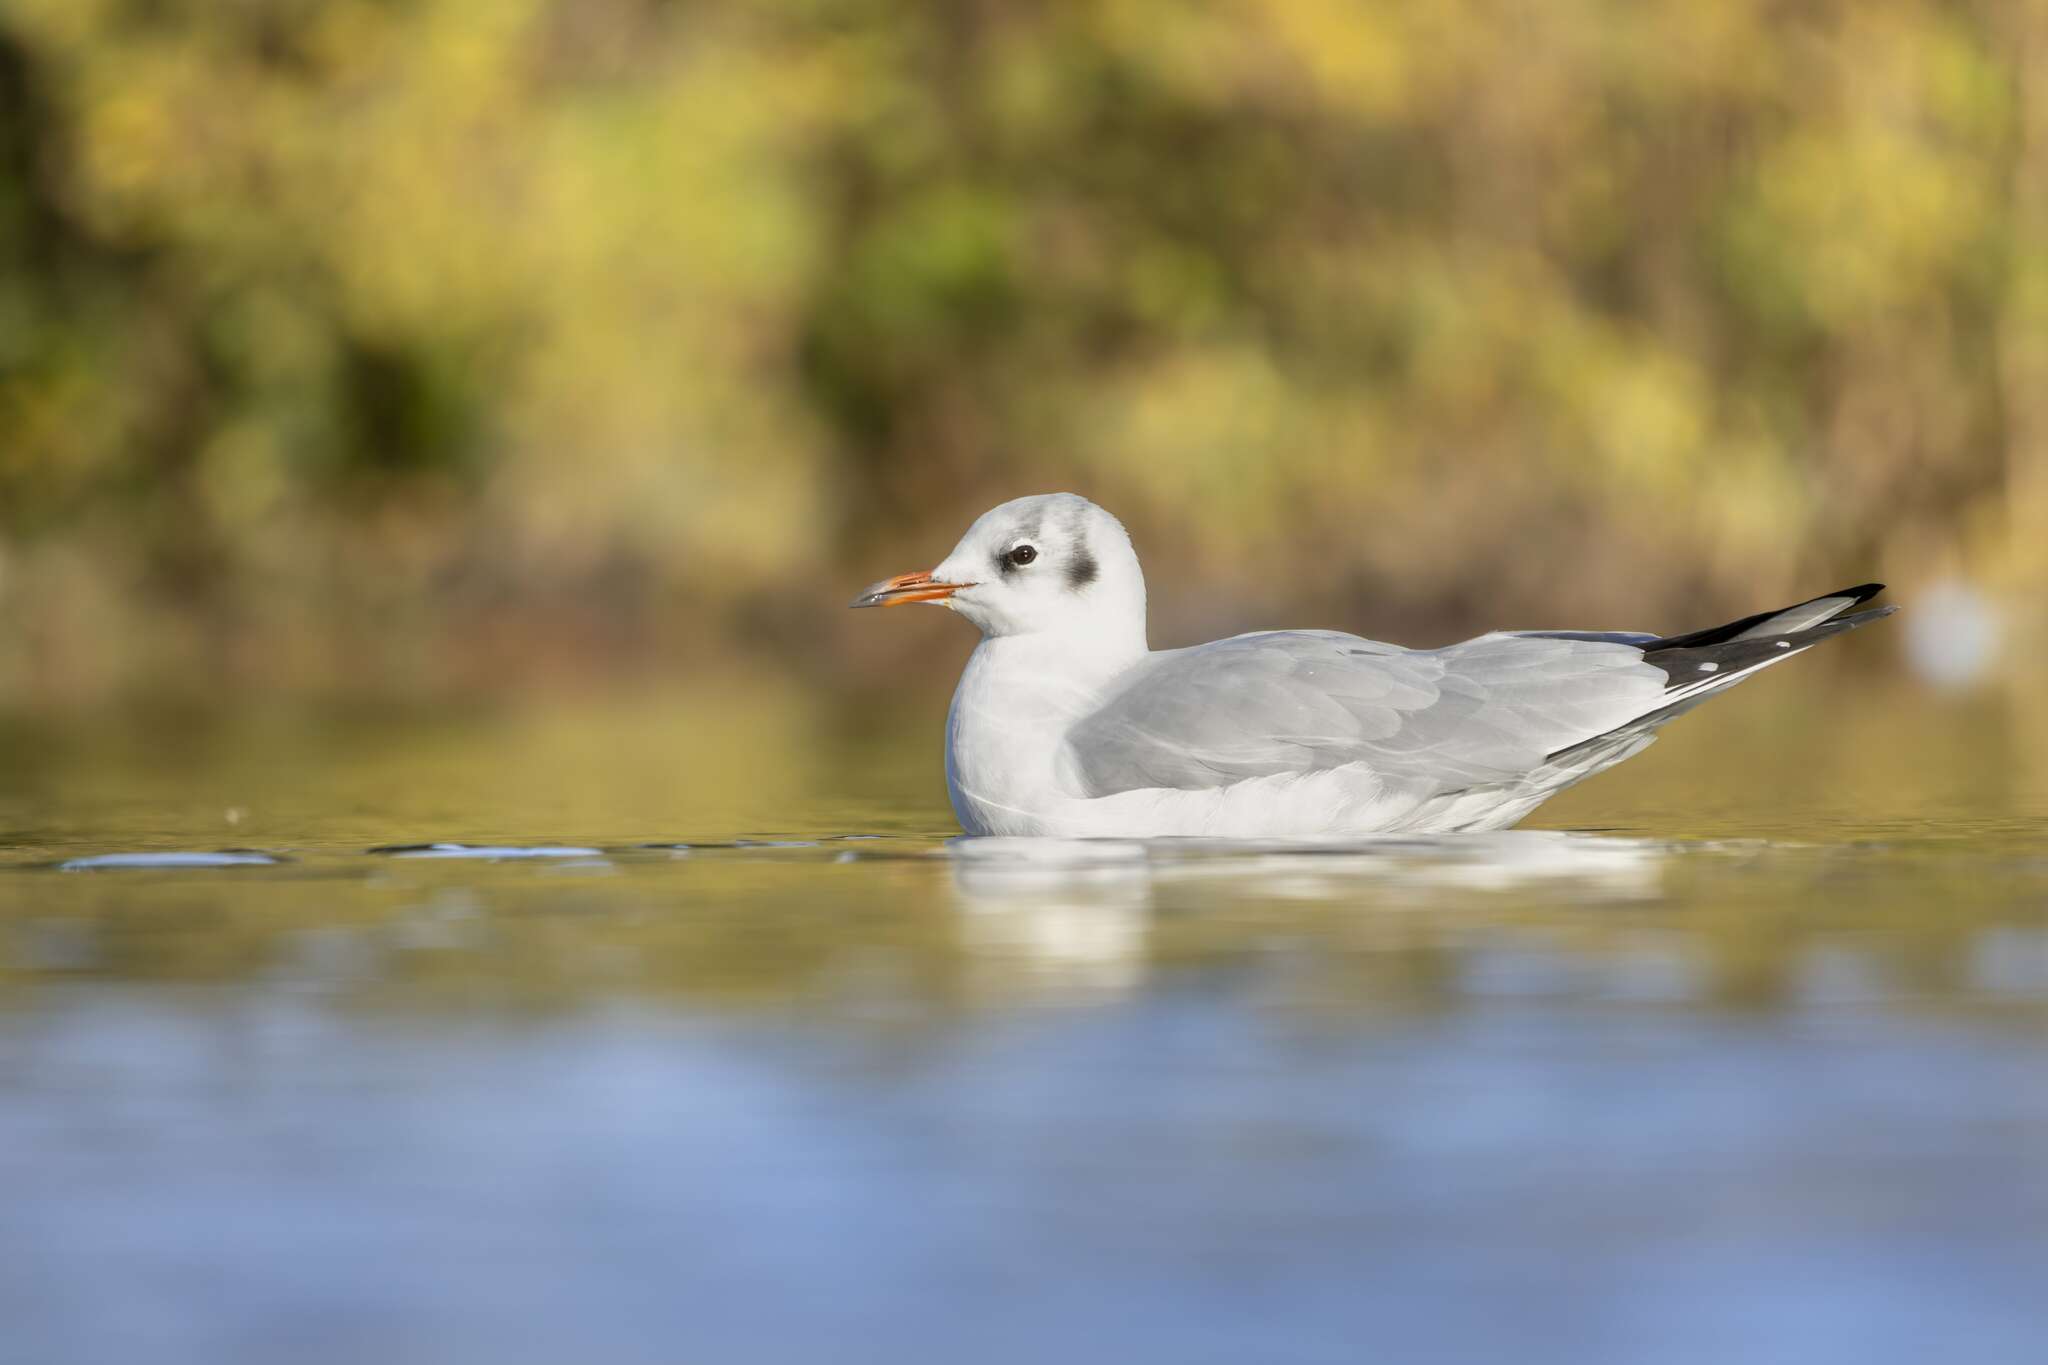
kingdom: Animalia
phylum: Chordata
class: Aves
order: Charadriiformes
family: Laridae
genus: Chroicocephalus
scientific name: Chroicocephalus ridibundus
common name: Black-headed gull
